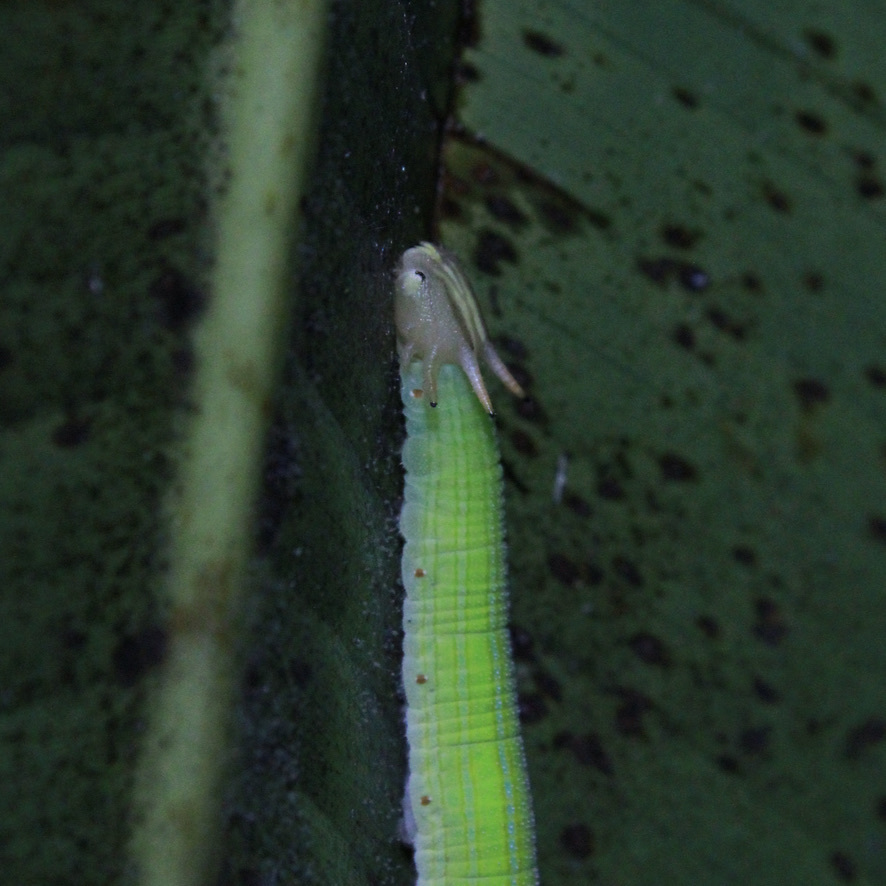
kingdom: Animalia
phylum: Arthropoda
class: Insecta
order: Lepidoptera
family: Nymphalidae
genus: Opsiphanes
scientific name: Opsiphanes cassiae
